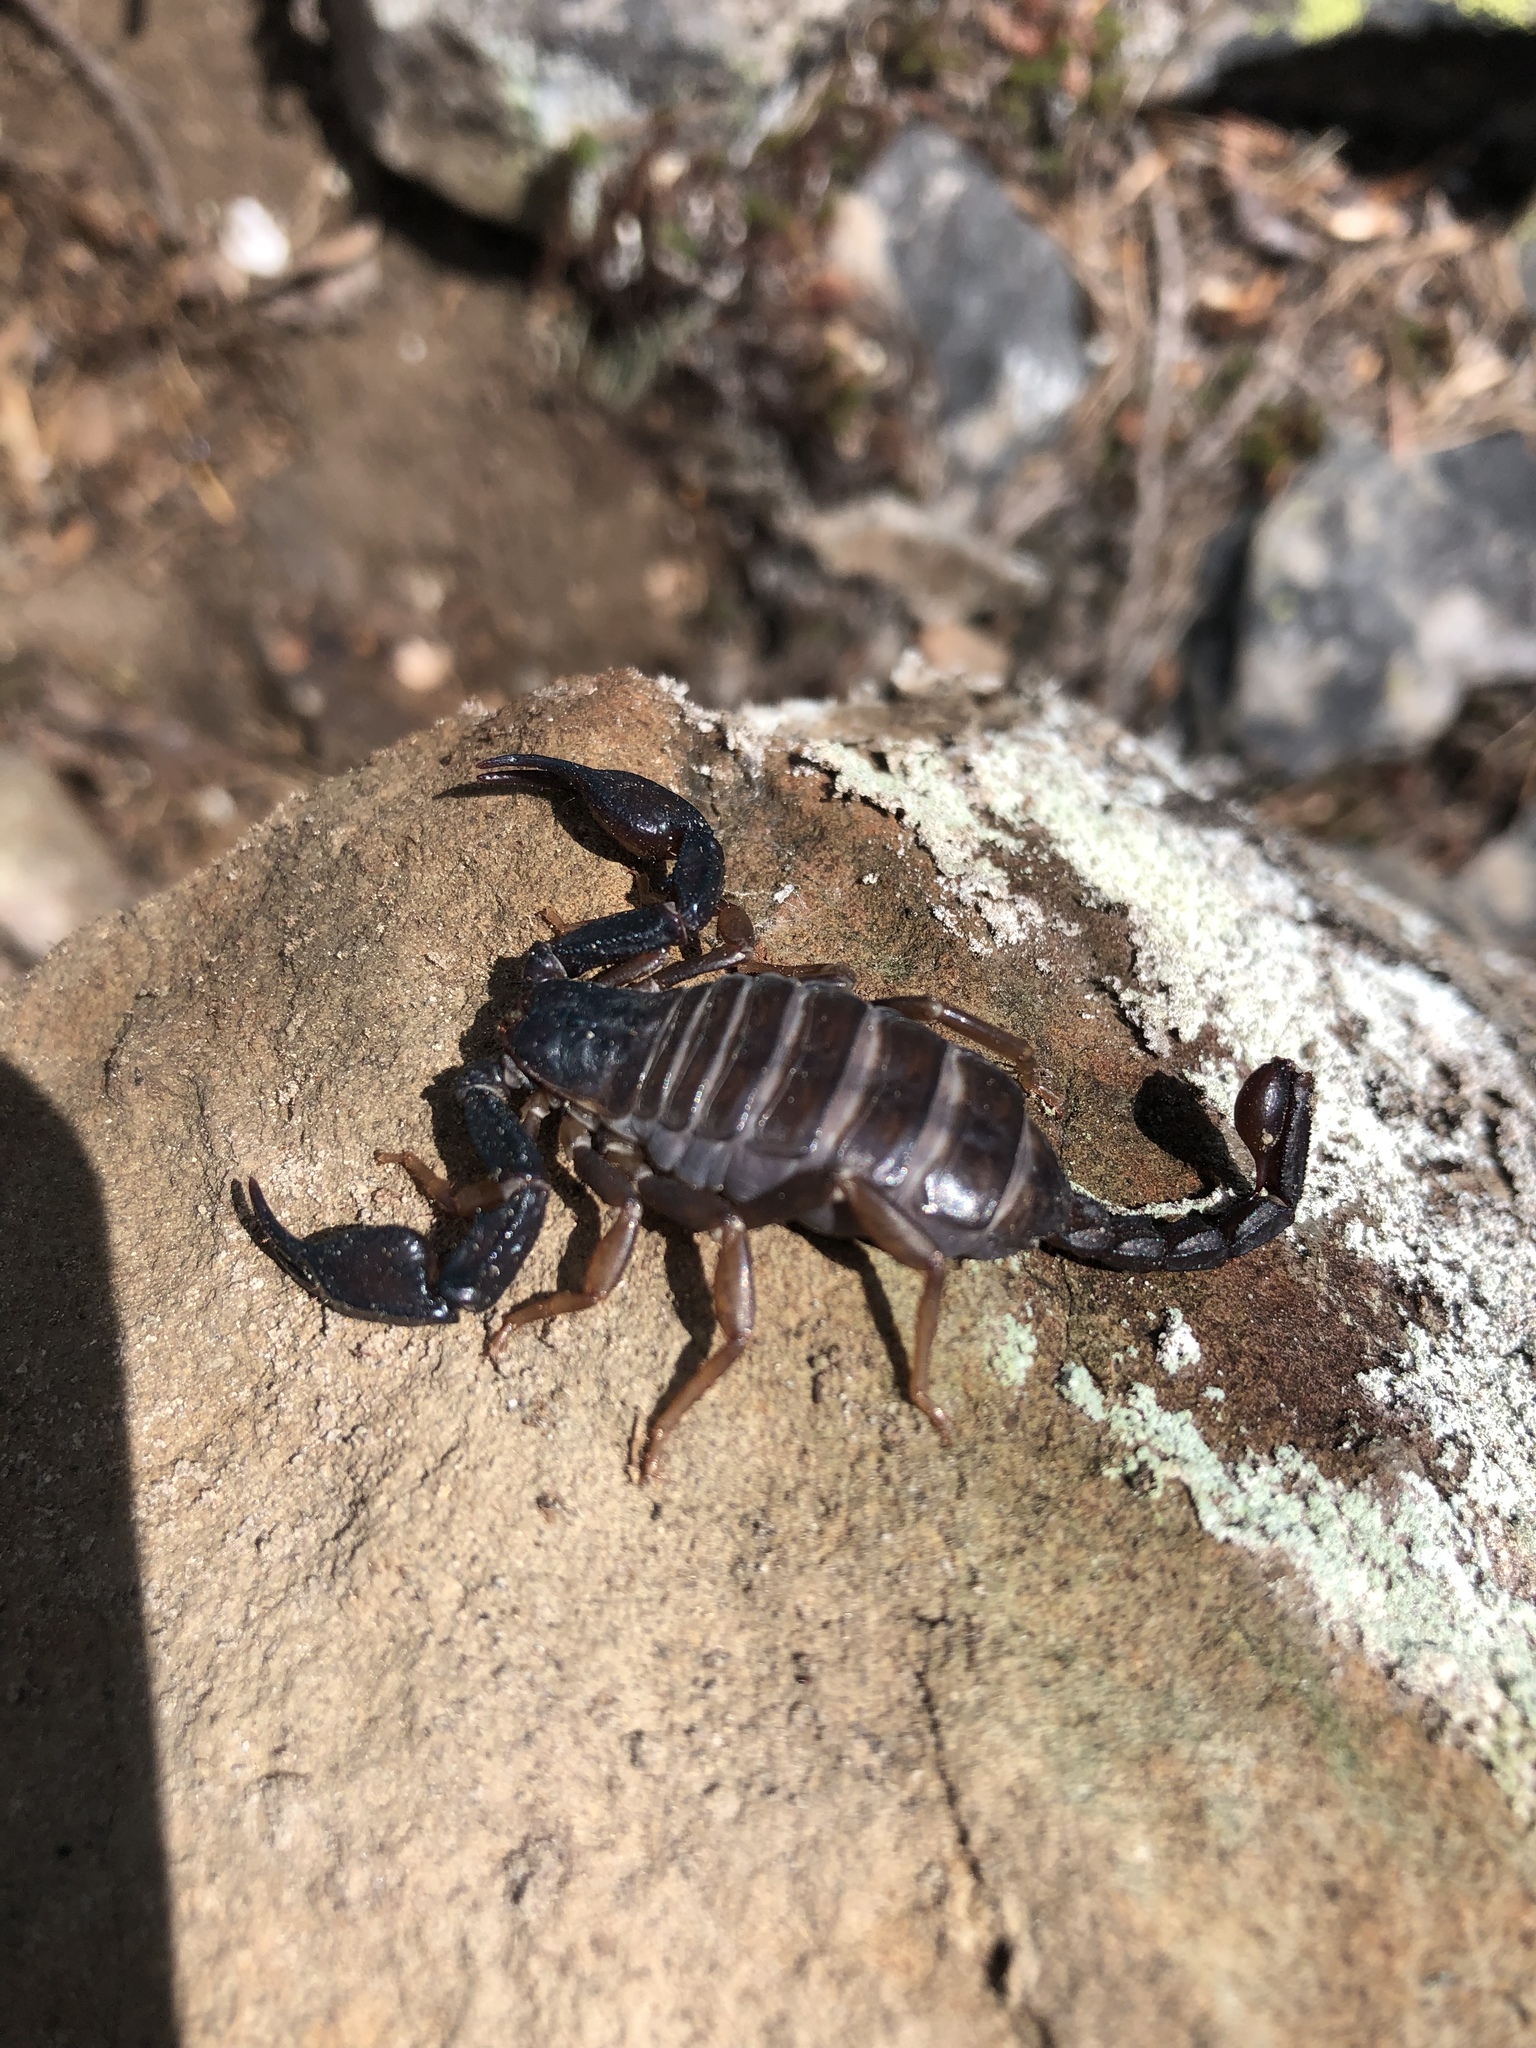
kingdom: Animalia
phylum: Arthropoda
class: Arachnida
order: Scorpiones
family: Chactidae
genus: Uroctonus
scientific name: Uroctonus mordax
